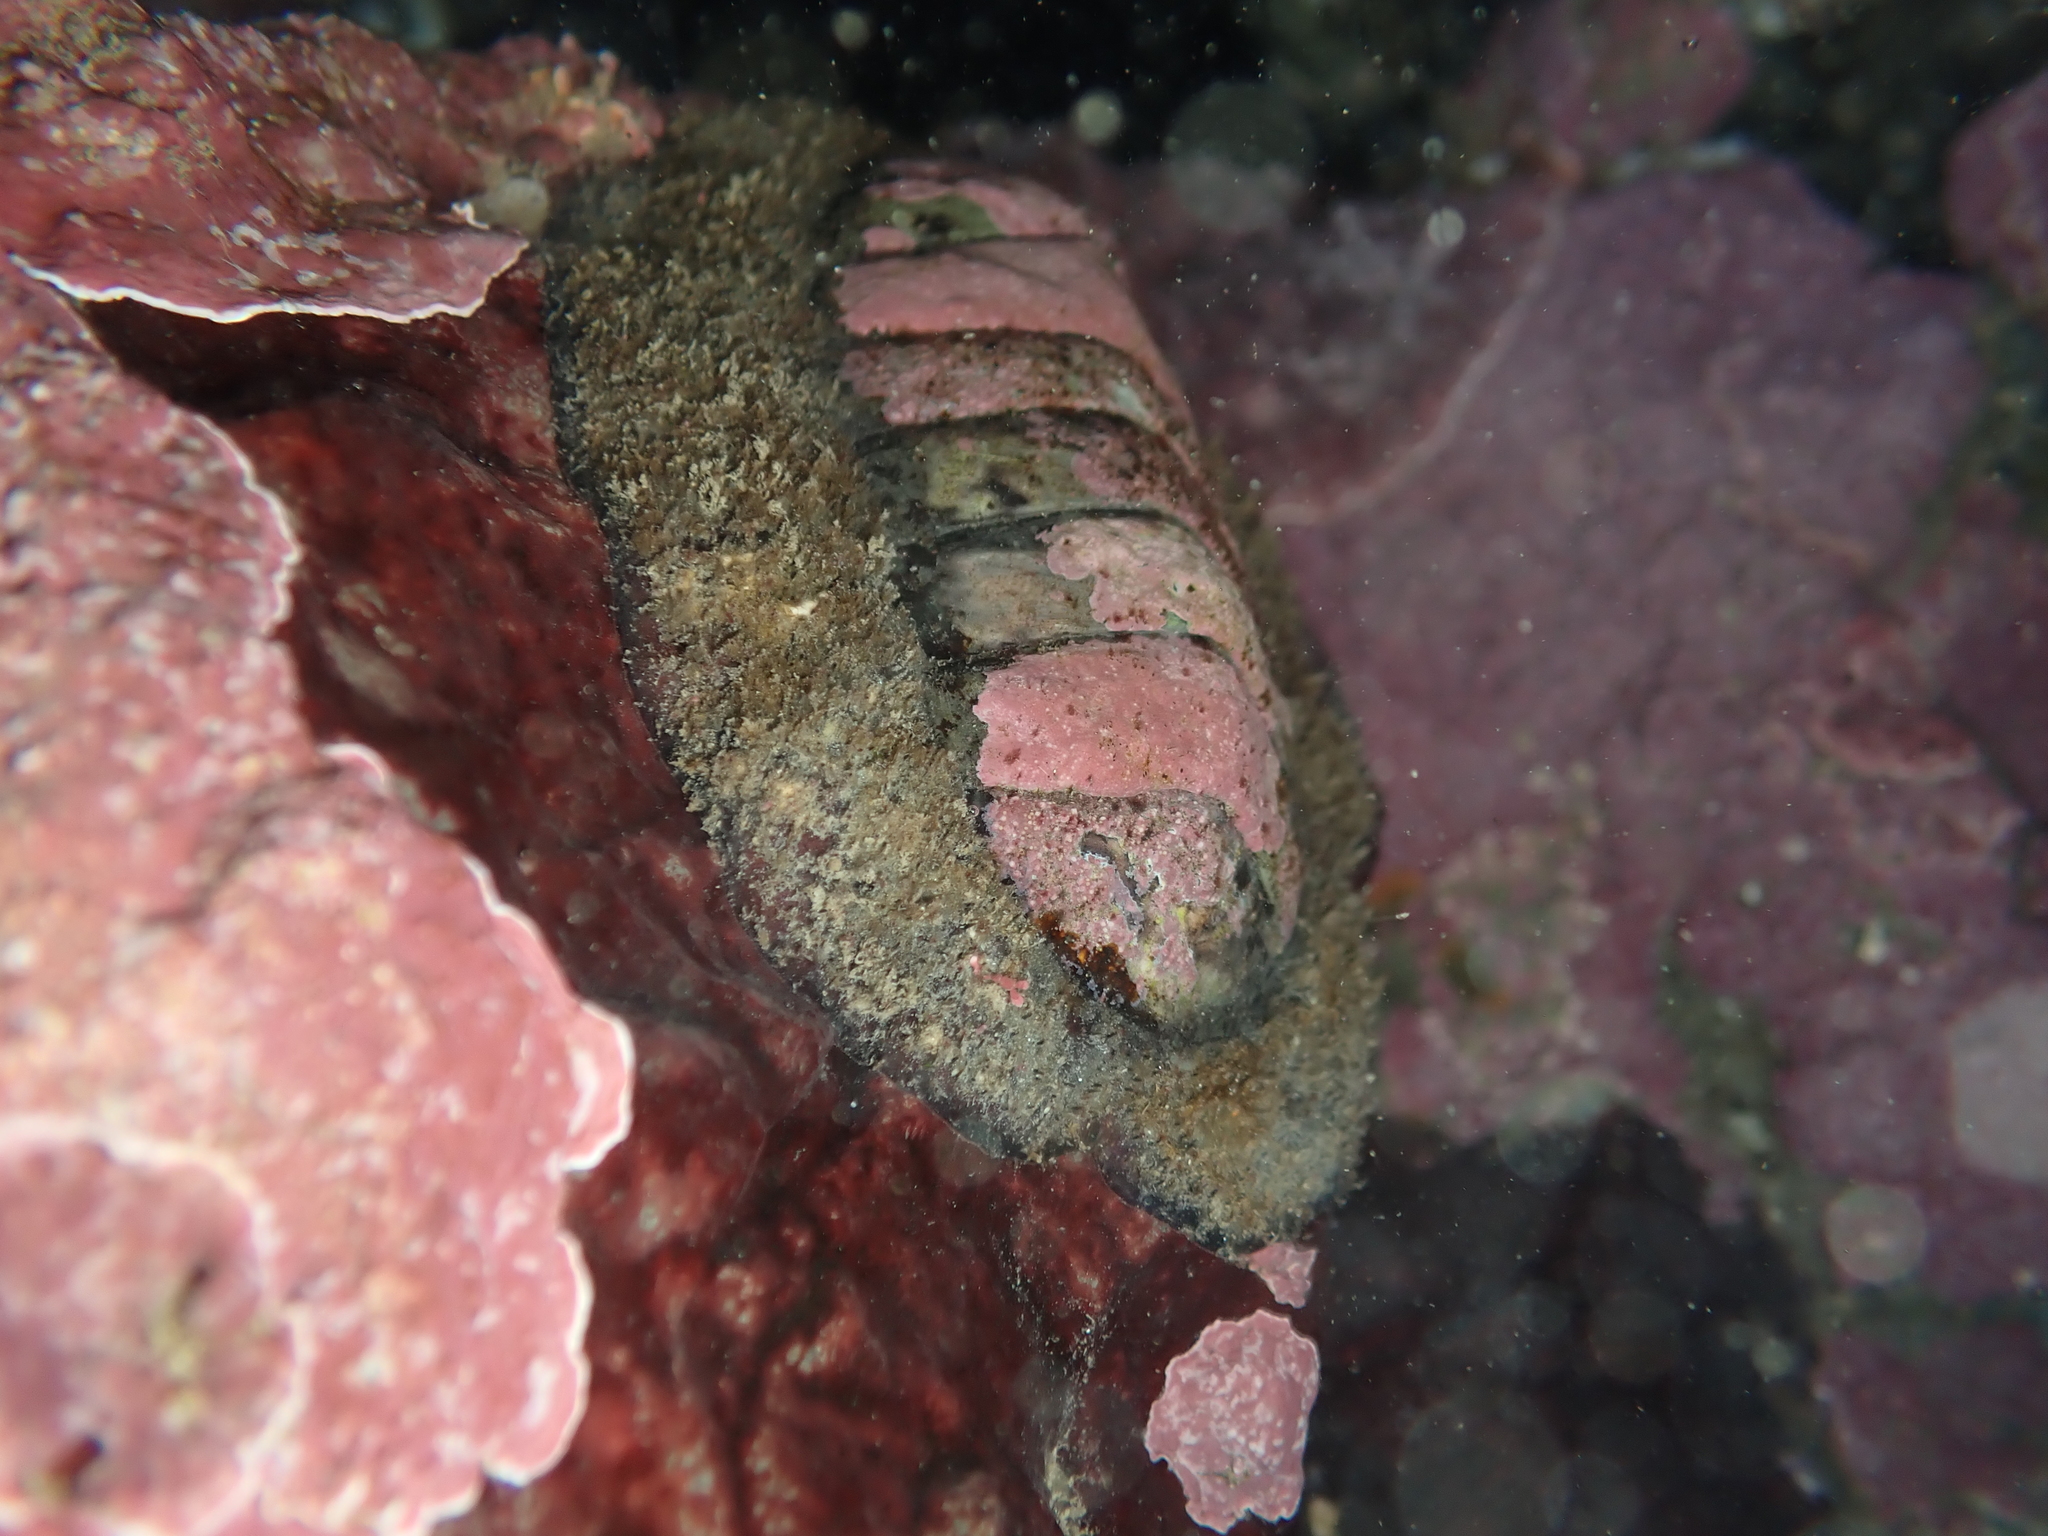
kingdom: Animalia
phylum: Mollusca
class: Polyplacophora
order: Callochitonida
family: Callochitonidae
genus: Eudoxochiton
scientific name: Eudoxochiton nobilis
